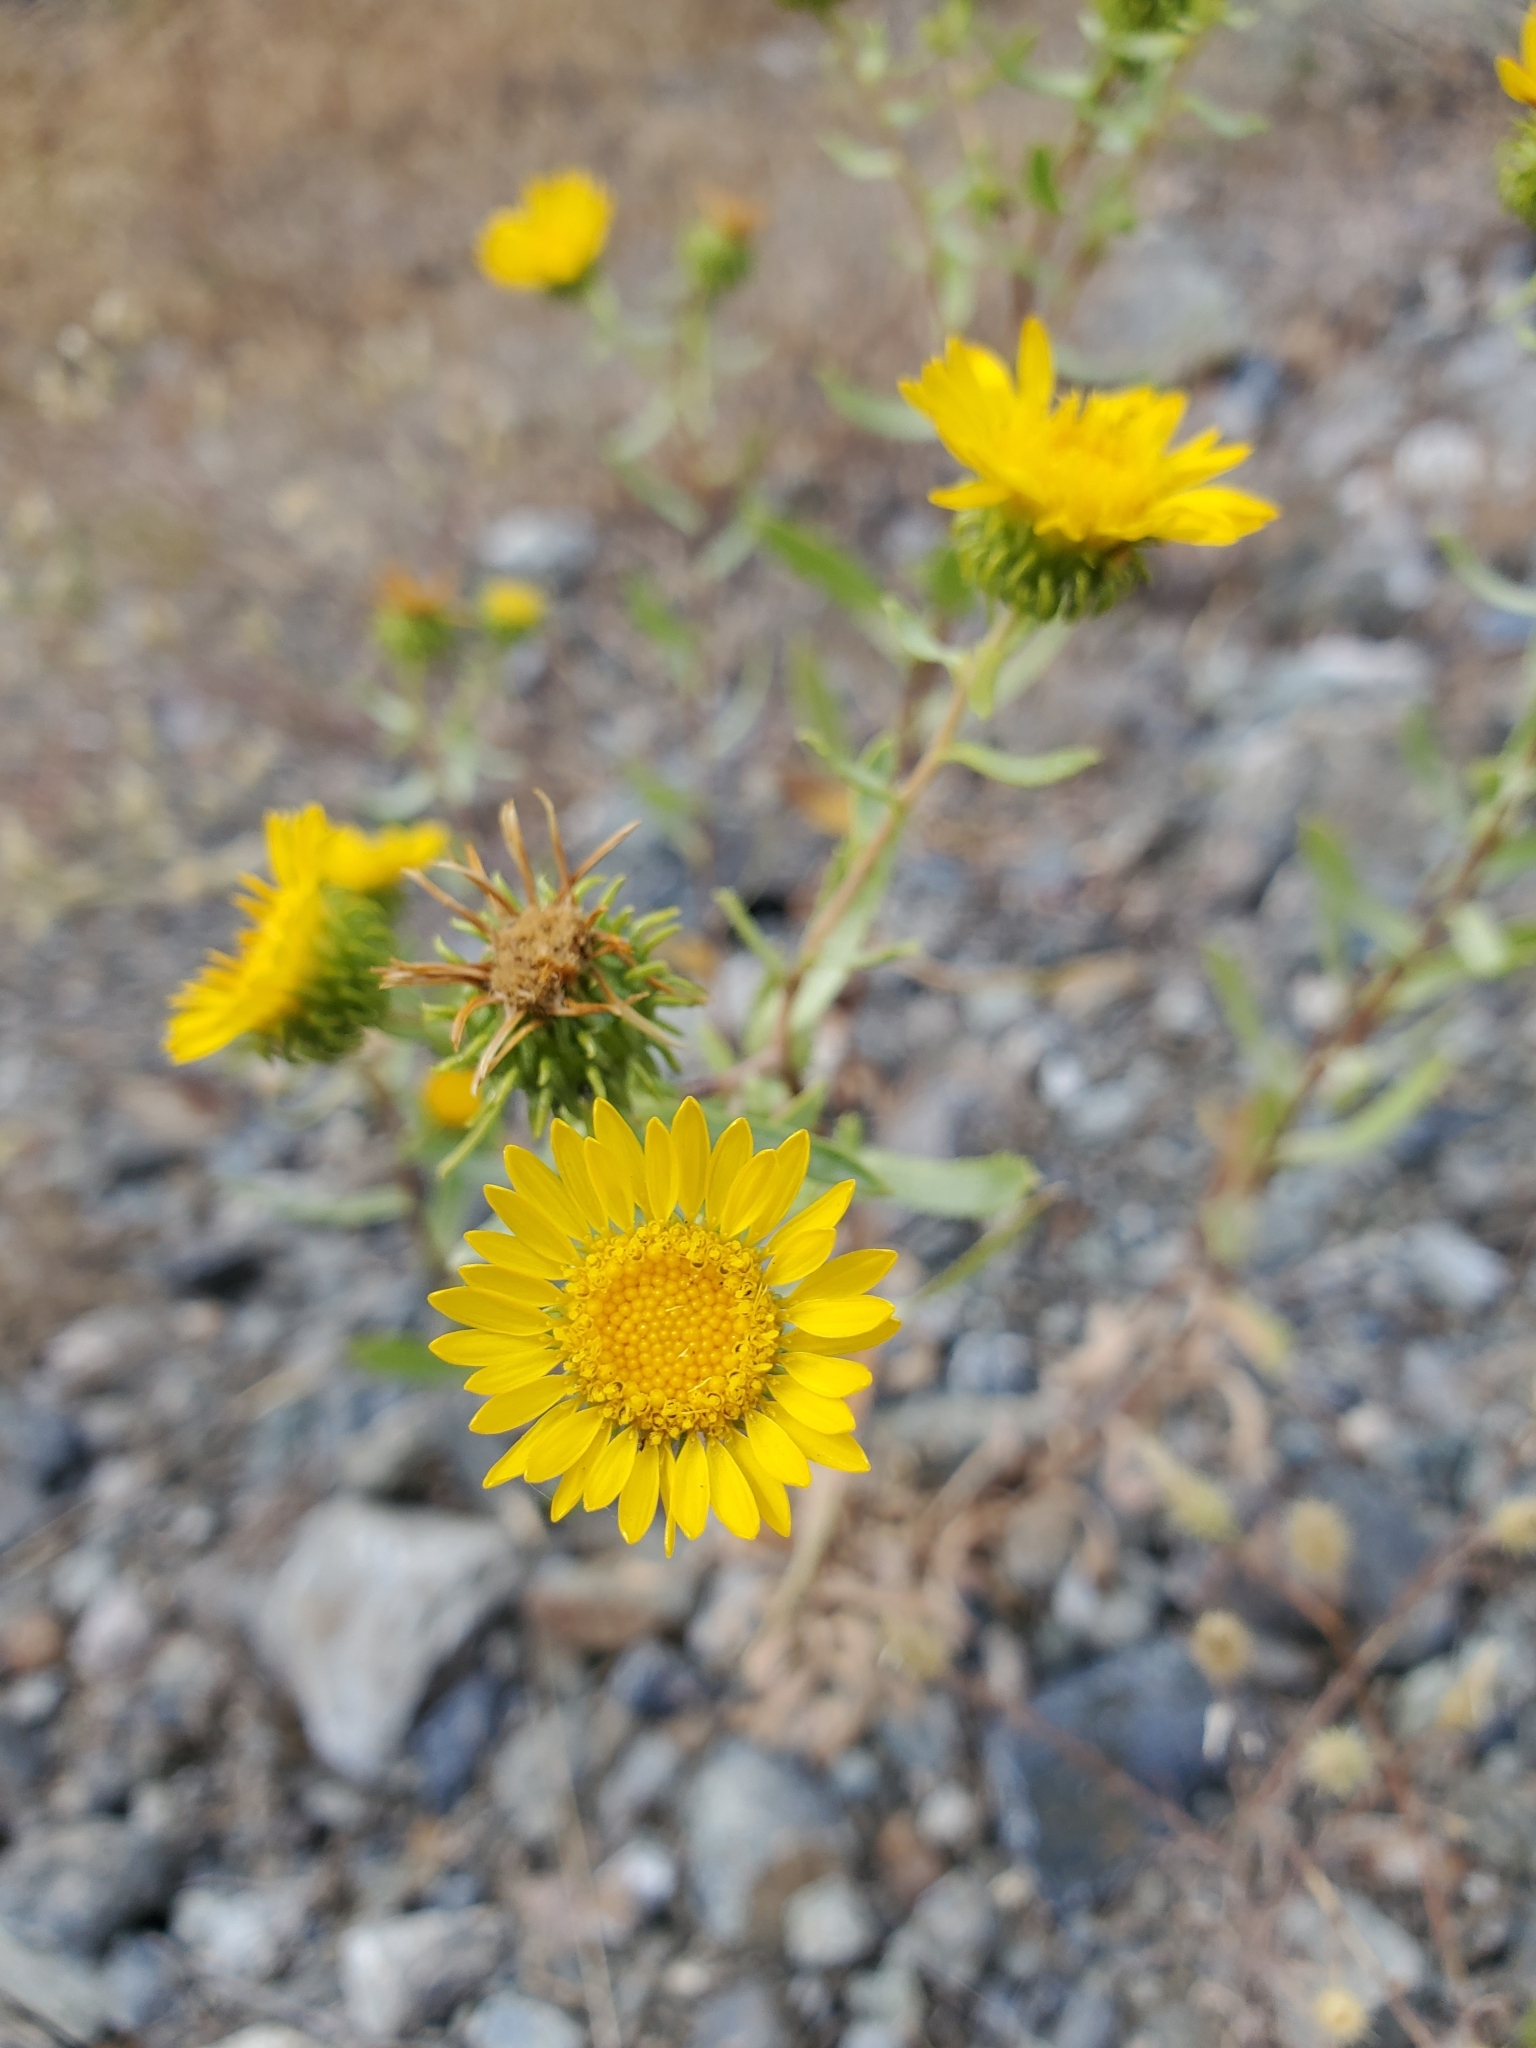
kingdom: Plantae
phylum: Tracheophyta
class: Magnoliopsida
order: Asterales
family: Asteraceae
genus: Grindelia
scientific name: Grindelia squarrosa
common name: Curly-cup gumweed
